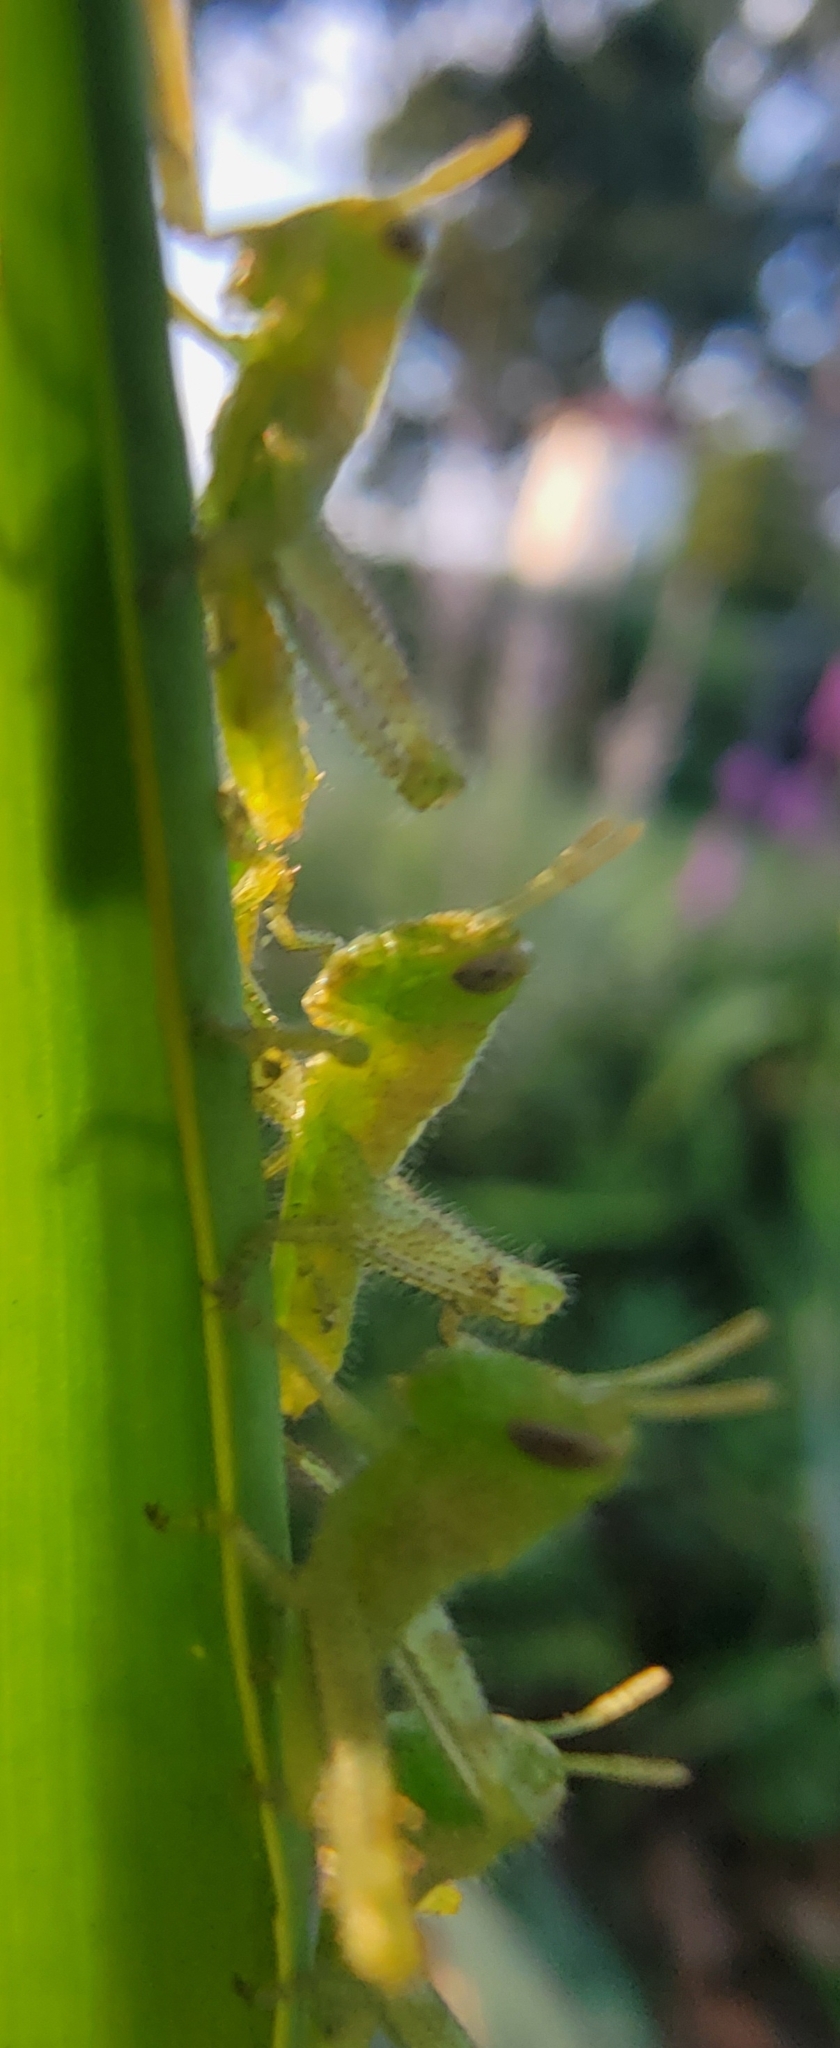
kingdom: Animalia
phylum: Arthropoda
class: Insecta
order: Orthoptera
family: Acrididae
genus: Schistocerca
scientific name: Schistocerca obscura
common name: Obscure bird grasshopper
